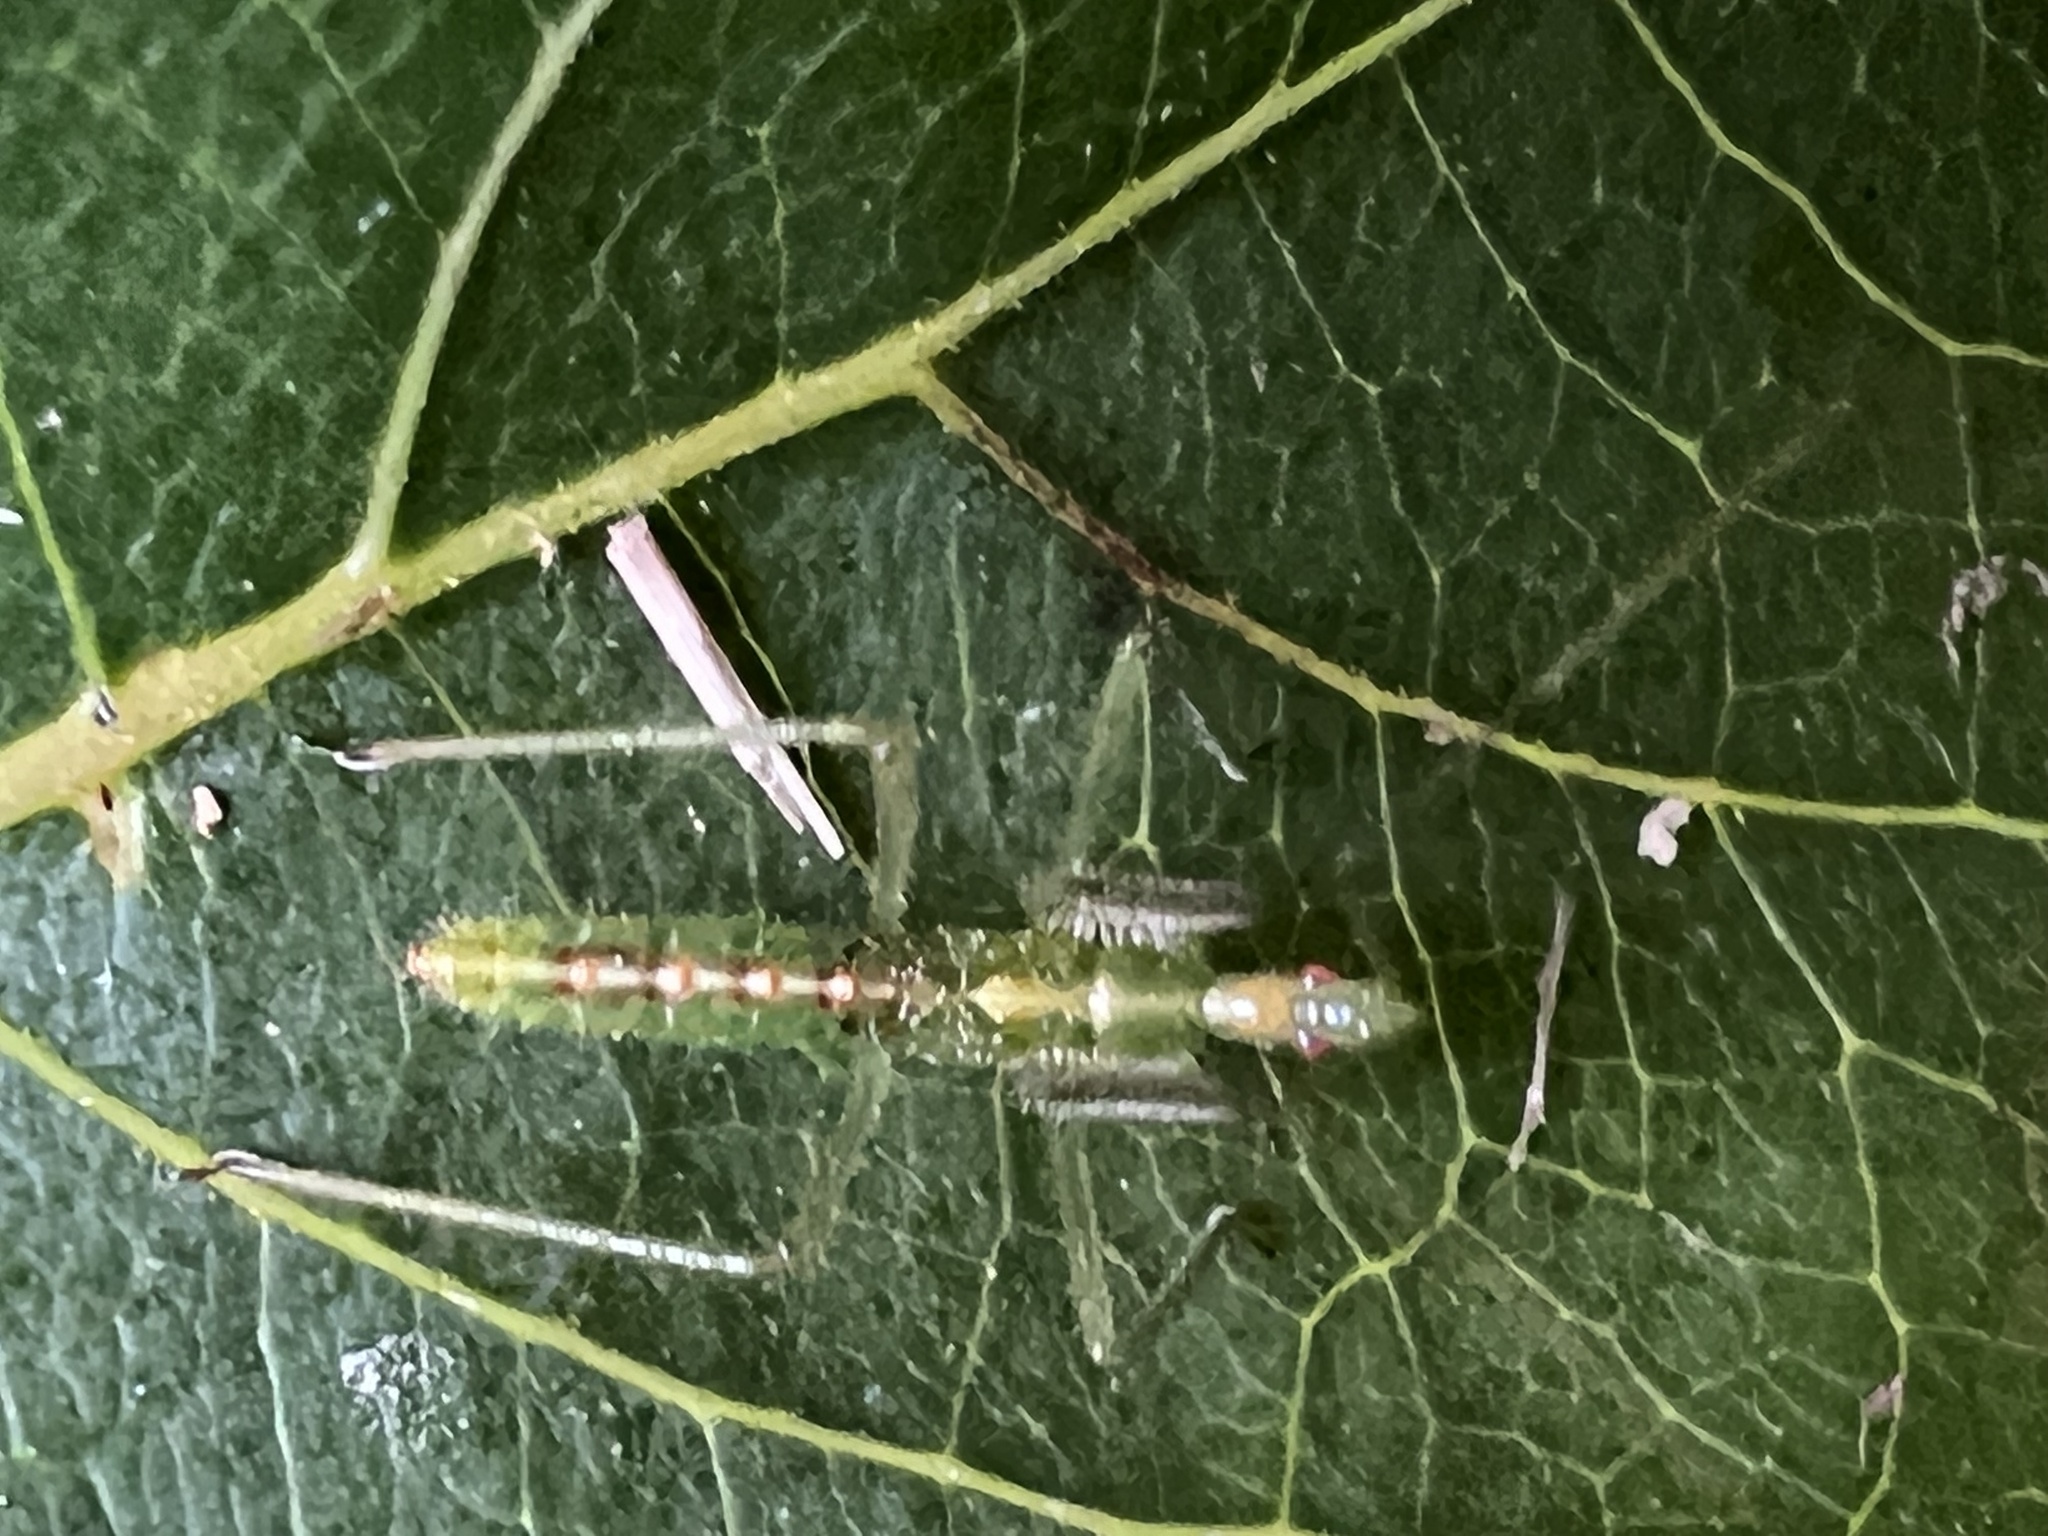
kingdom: Animalia
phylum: Arthropoda
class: Insecta
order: Hemiptera
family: Reduviidae
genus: Zelus
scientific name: Zelus luridus
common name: Pale green assassin bug
